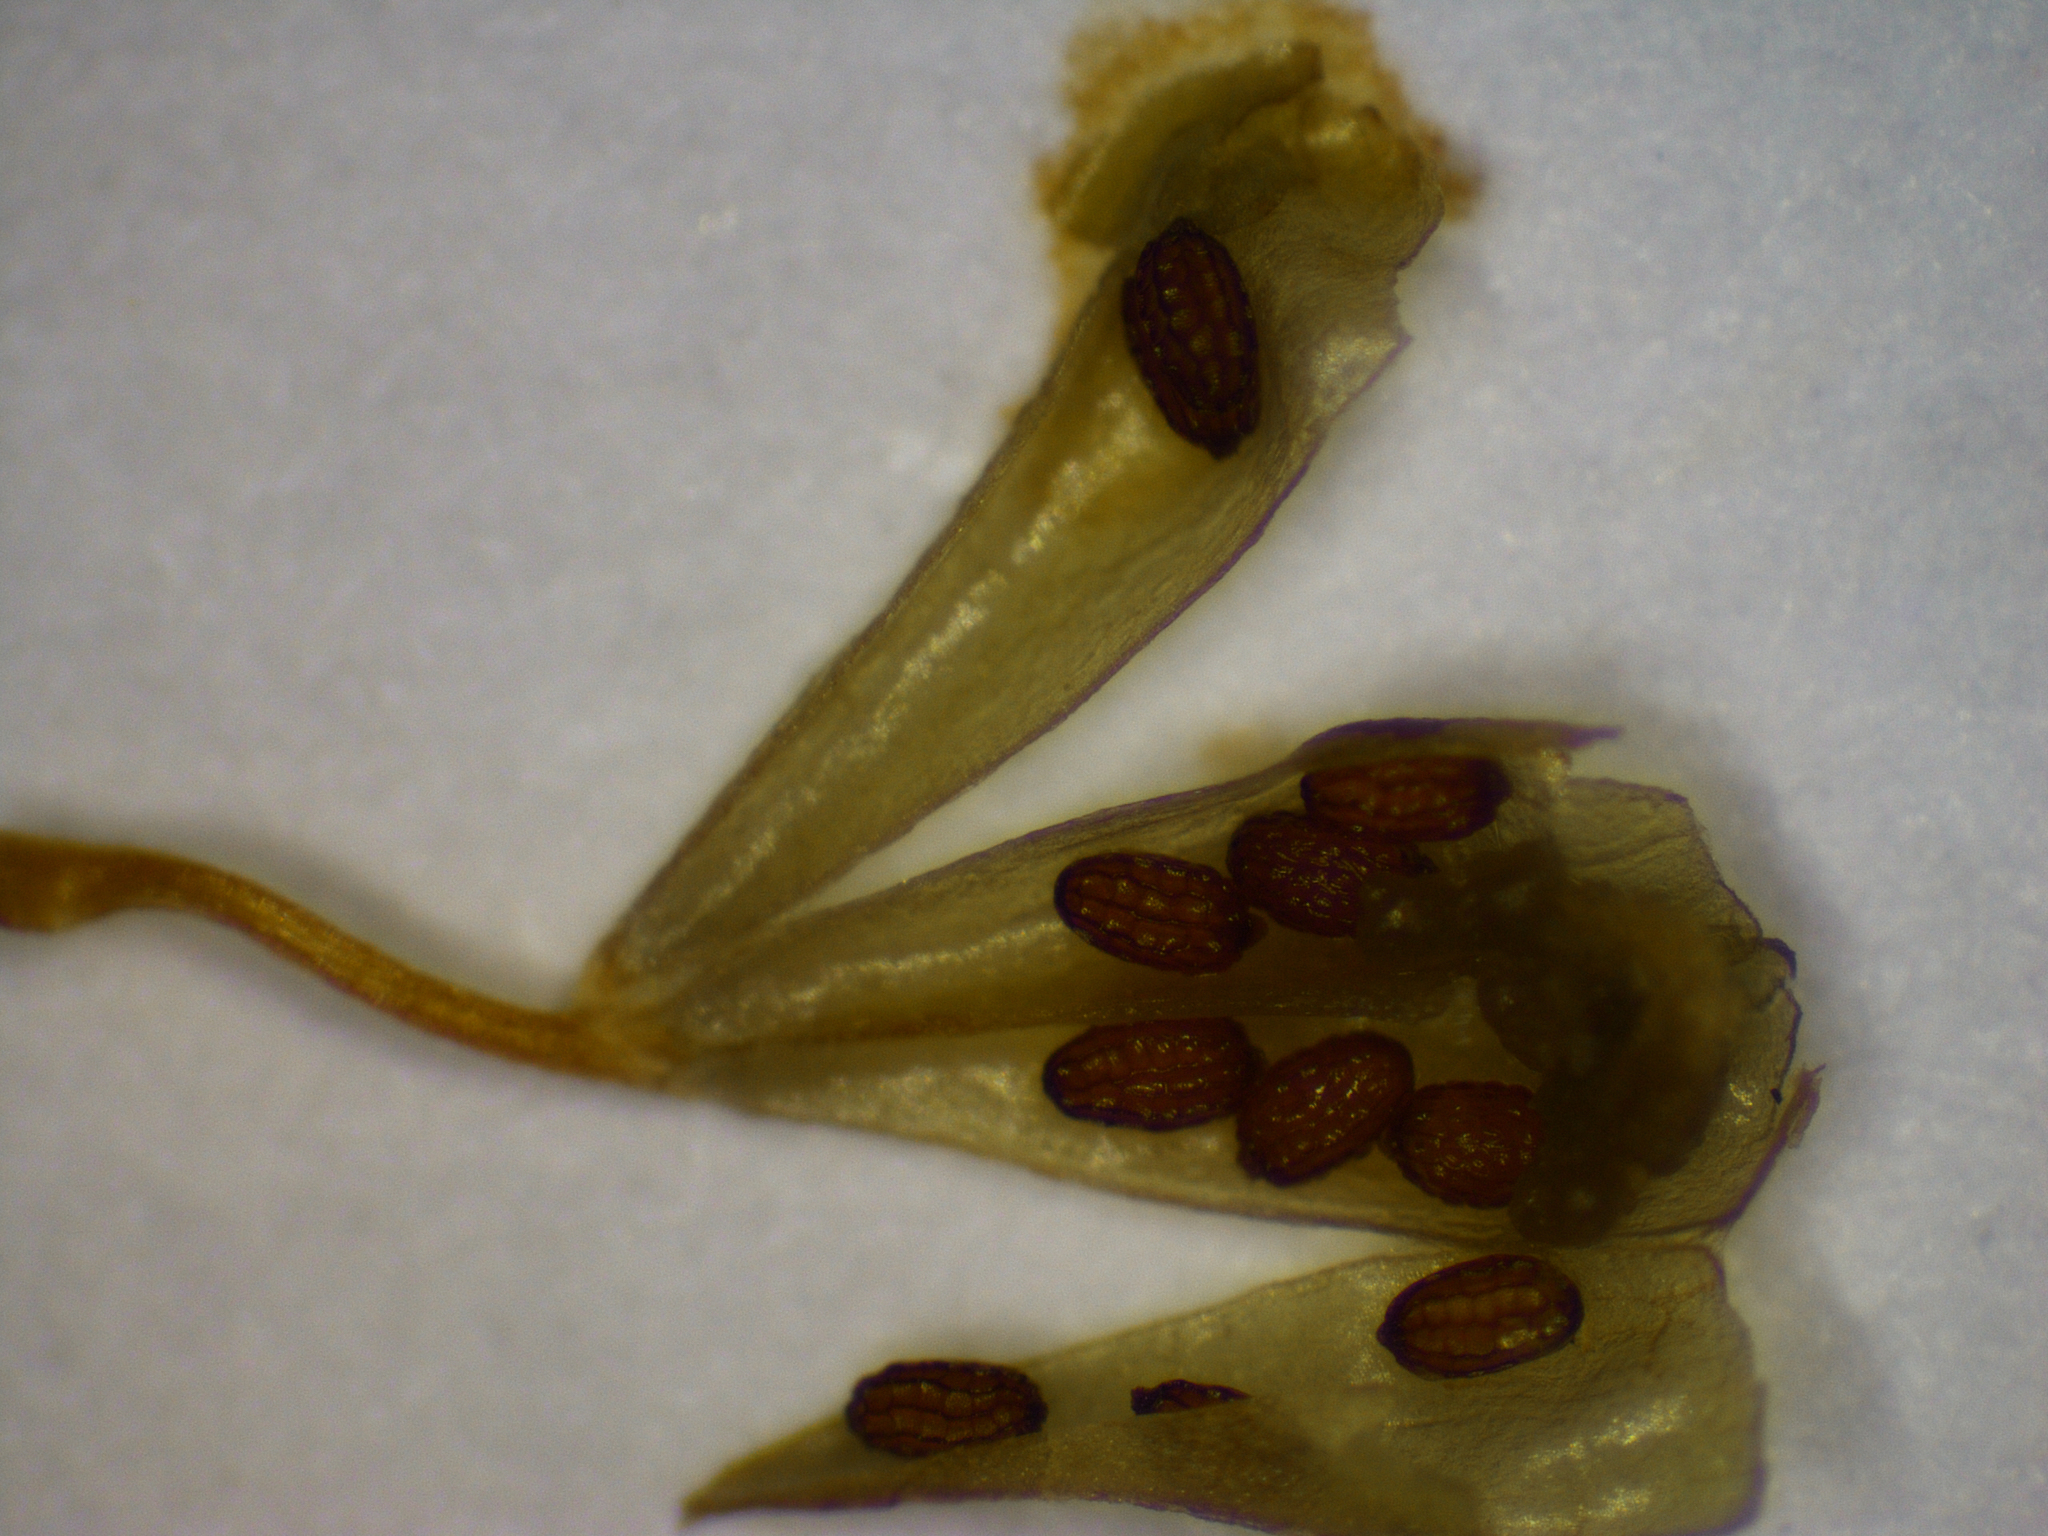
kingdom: Plantae
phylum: Tracheophyta
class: Magnoliopsida
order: Lamiales
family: Plantaginaceae
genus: Stemodia
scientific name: Stemodia lythrifolia
